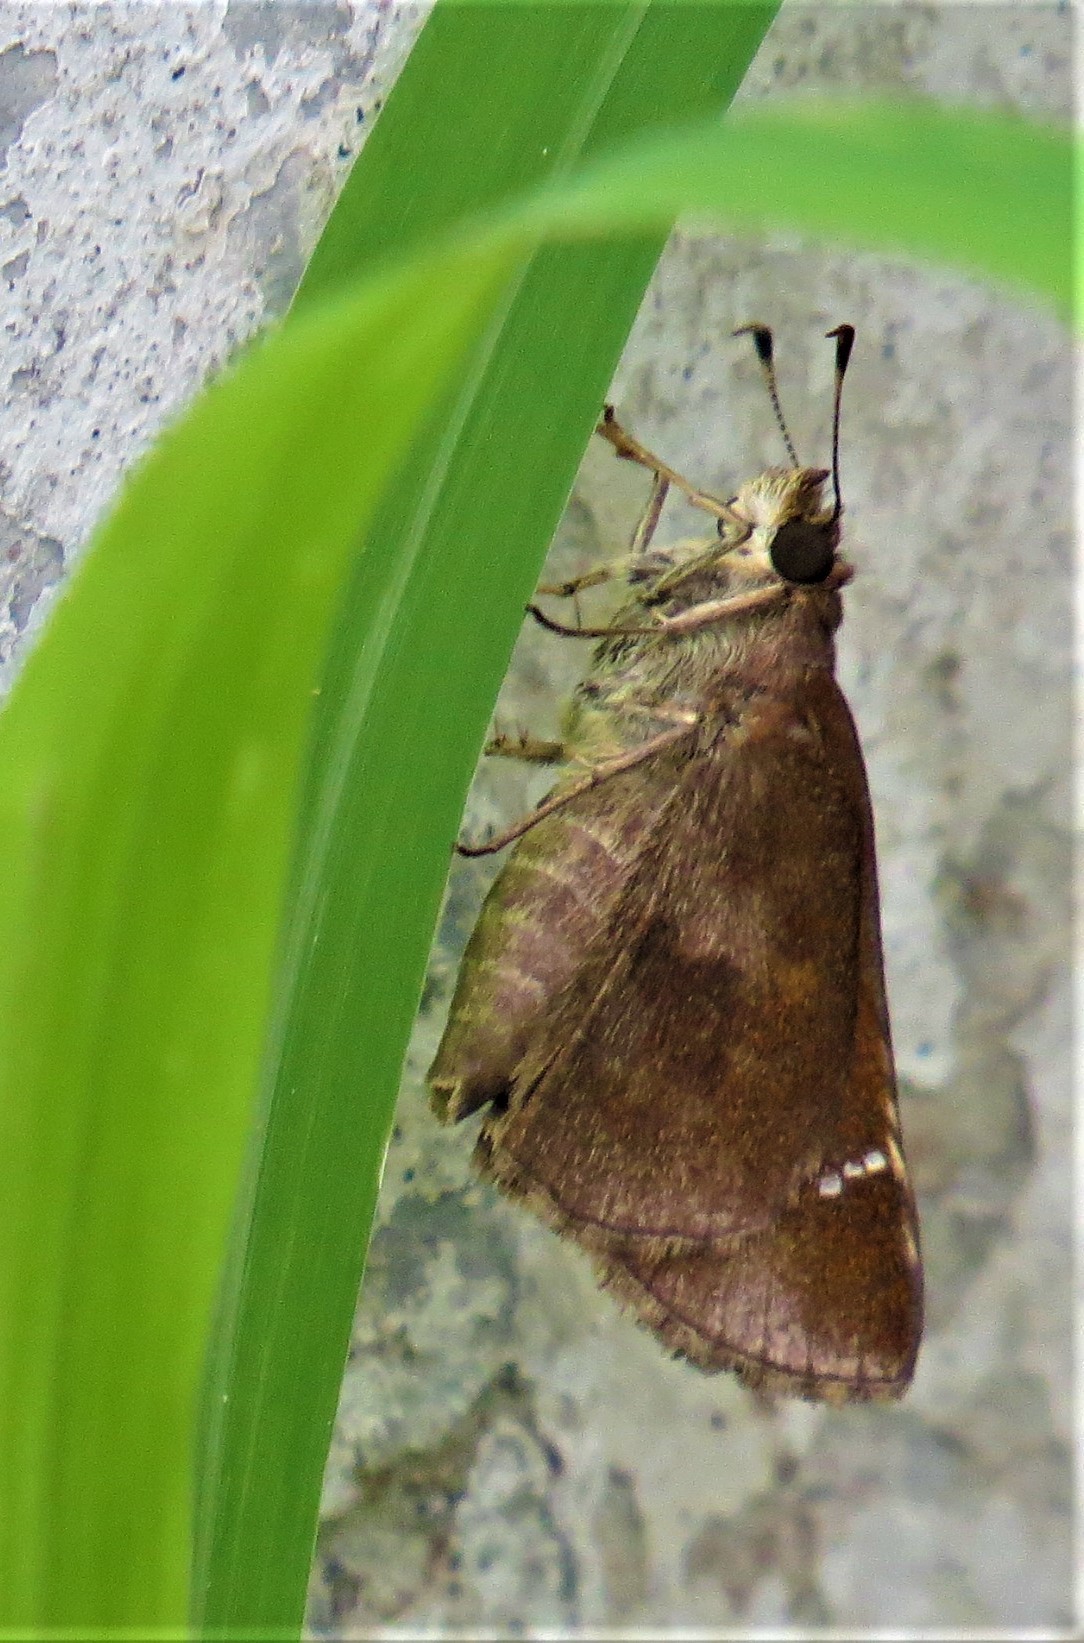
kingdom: Animalia
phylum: Arthropoda
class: Insecta
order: Lepidoptera
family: Hesperiidae
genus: Lerema
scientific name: Lerema accius
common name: Clouded skipper
